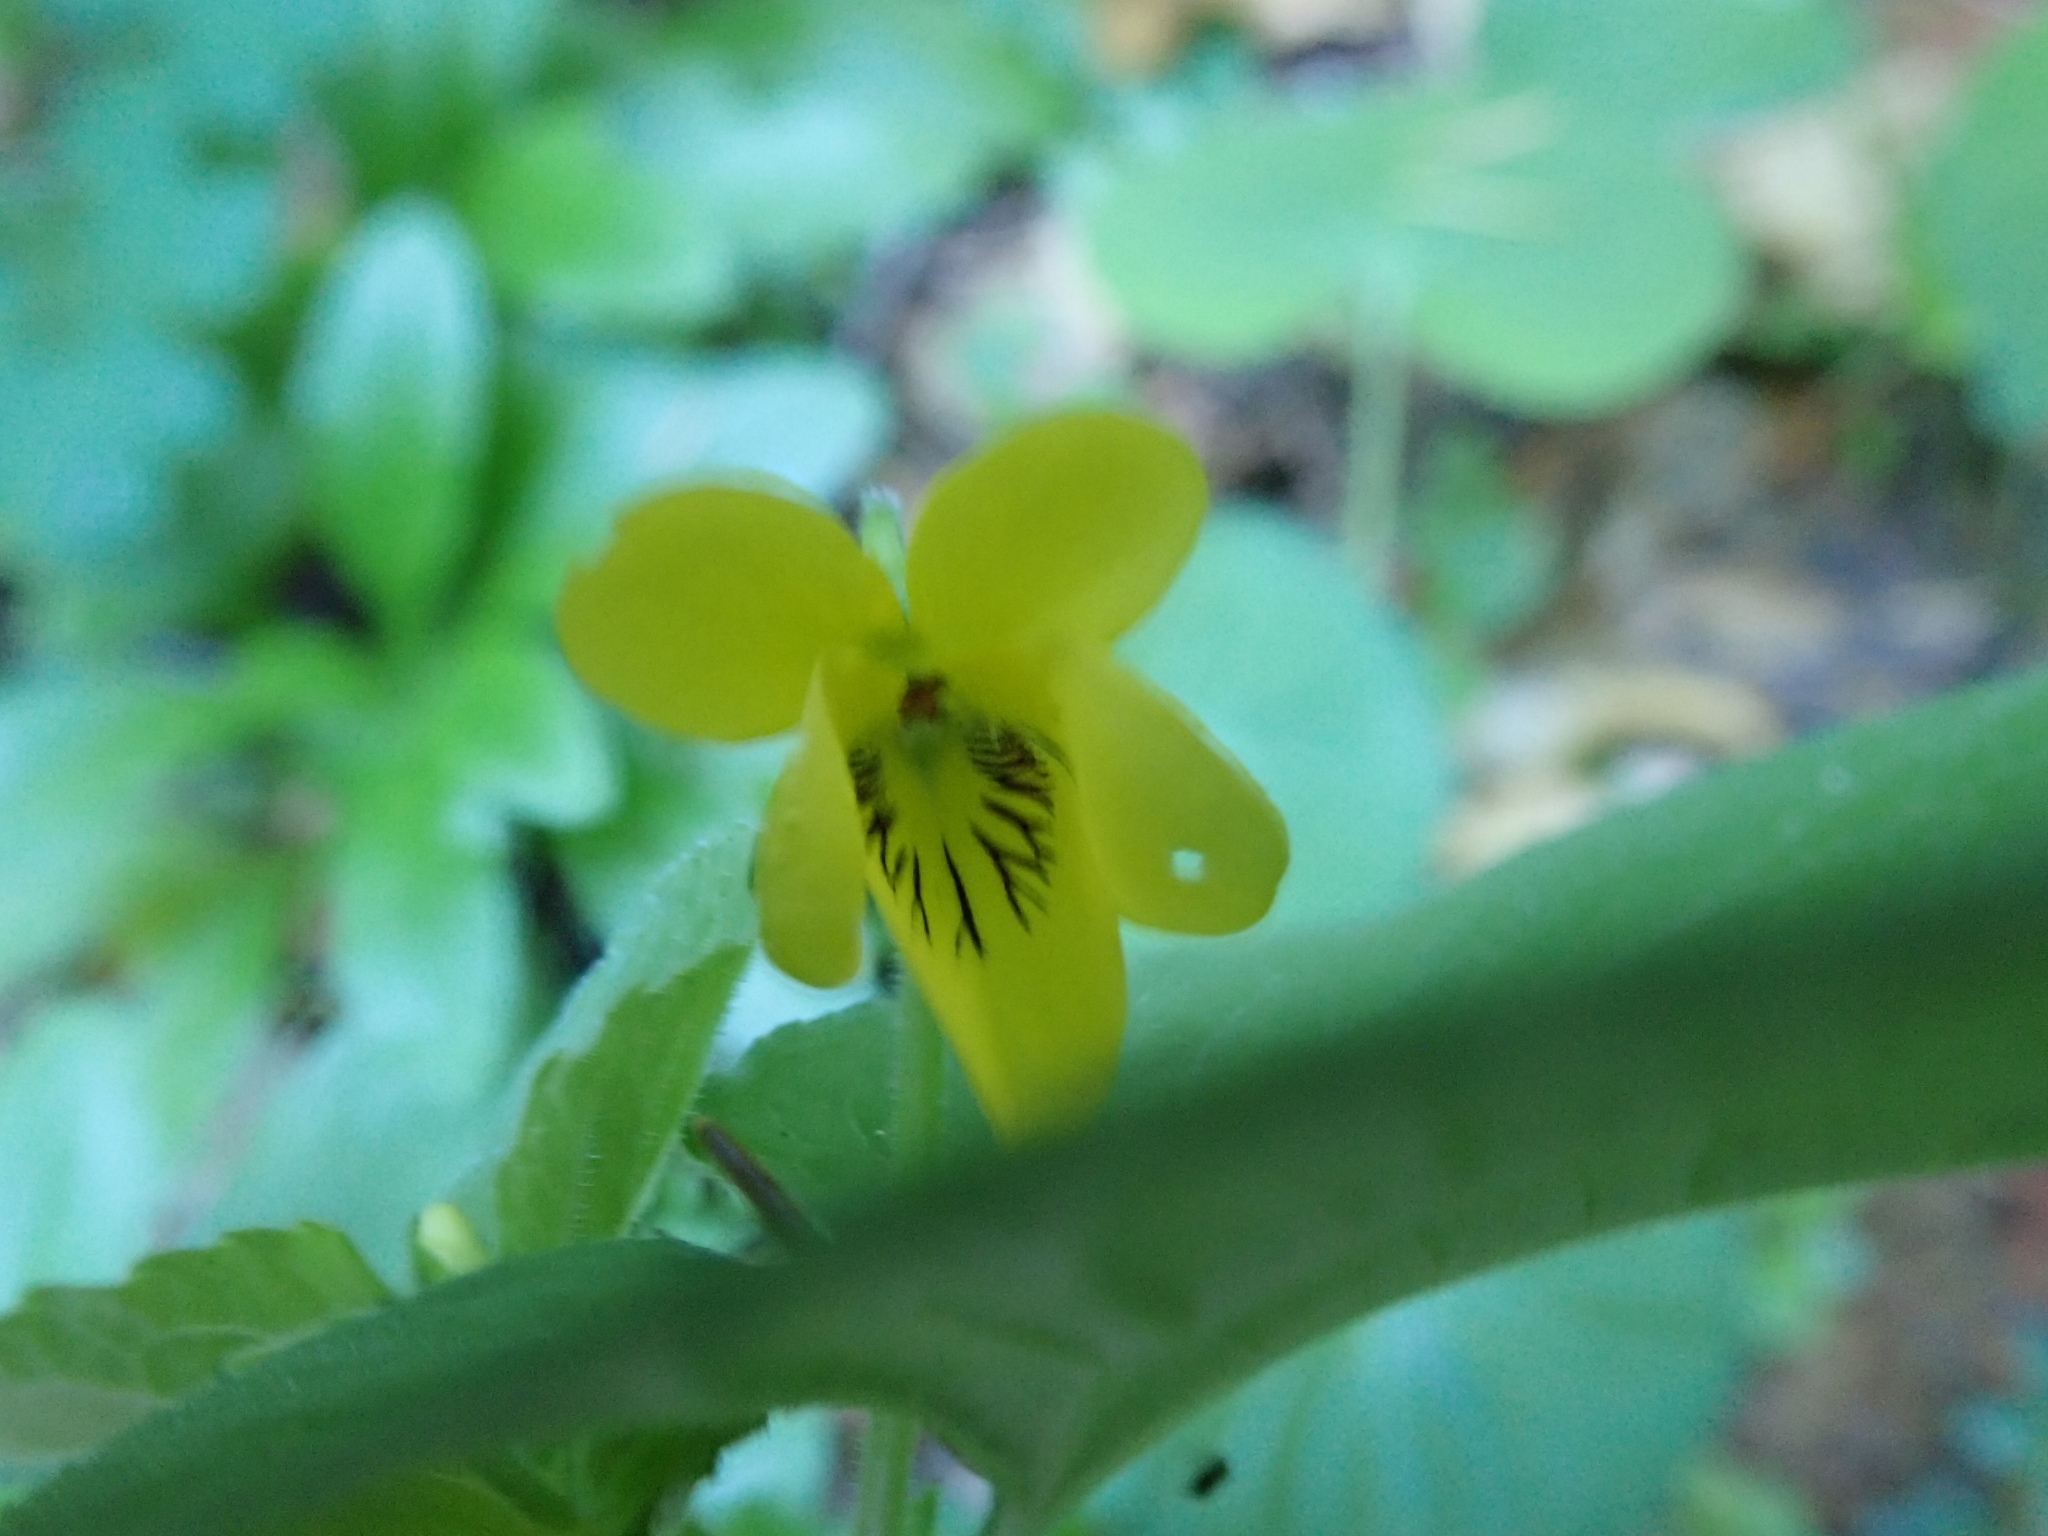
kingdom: Plantae
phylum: Tracheophyta
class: Magnoliopsida
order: Malpighiales
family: Violaceae
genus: Viola
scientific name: Viola glabella
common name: Stream violet
